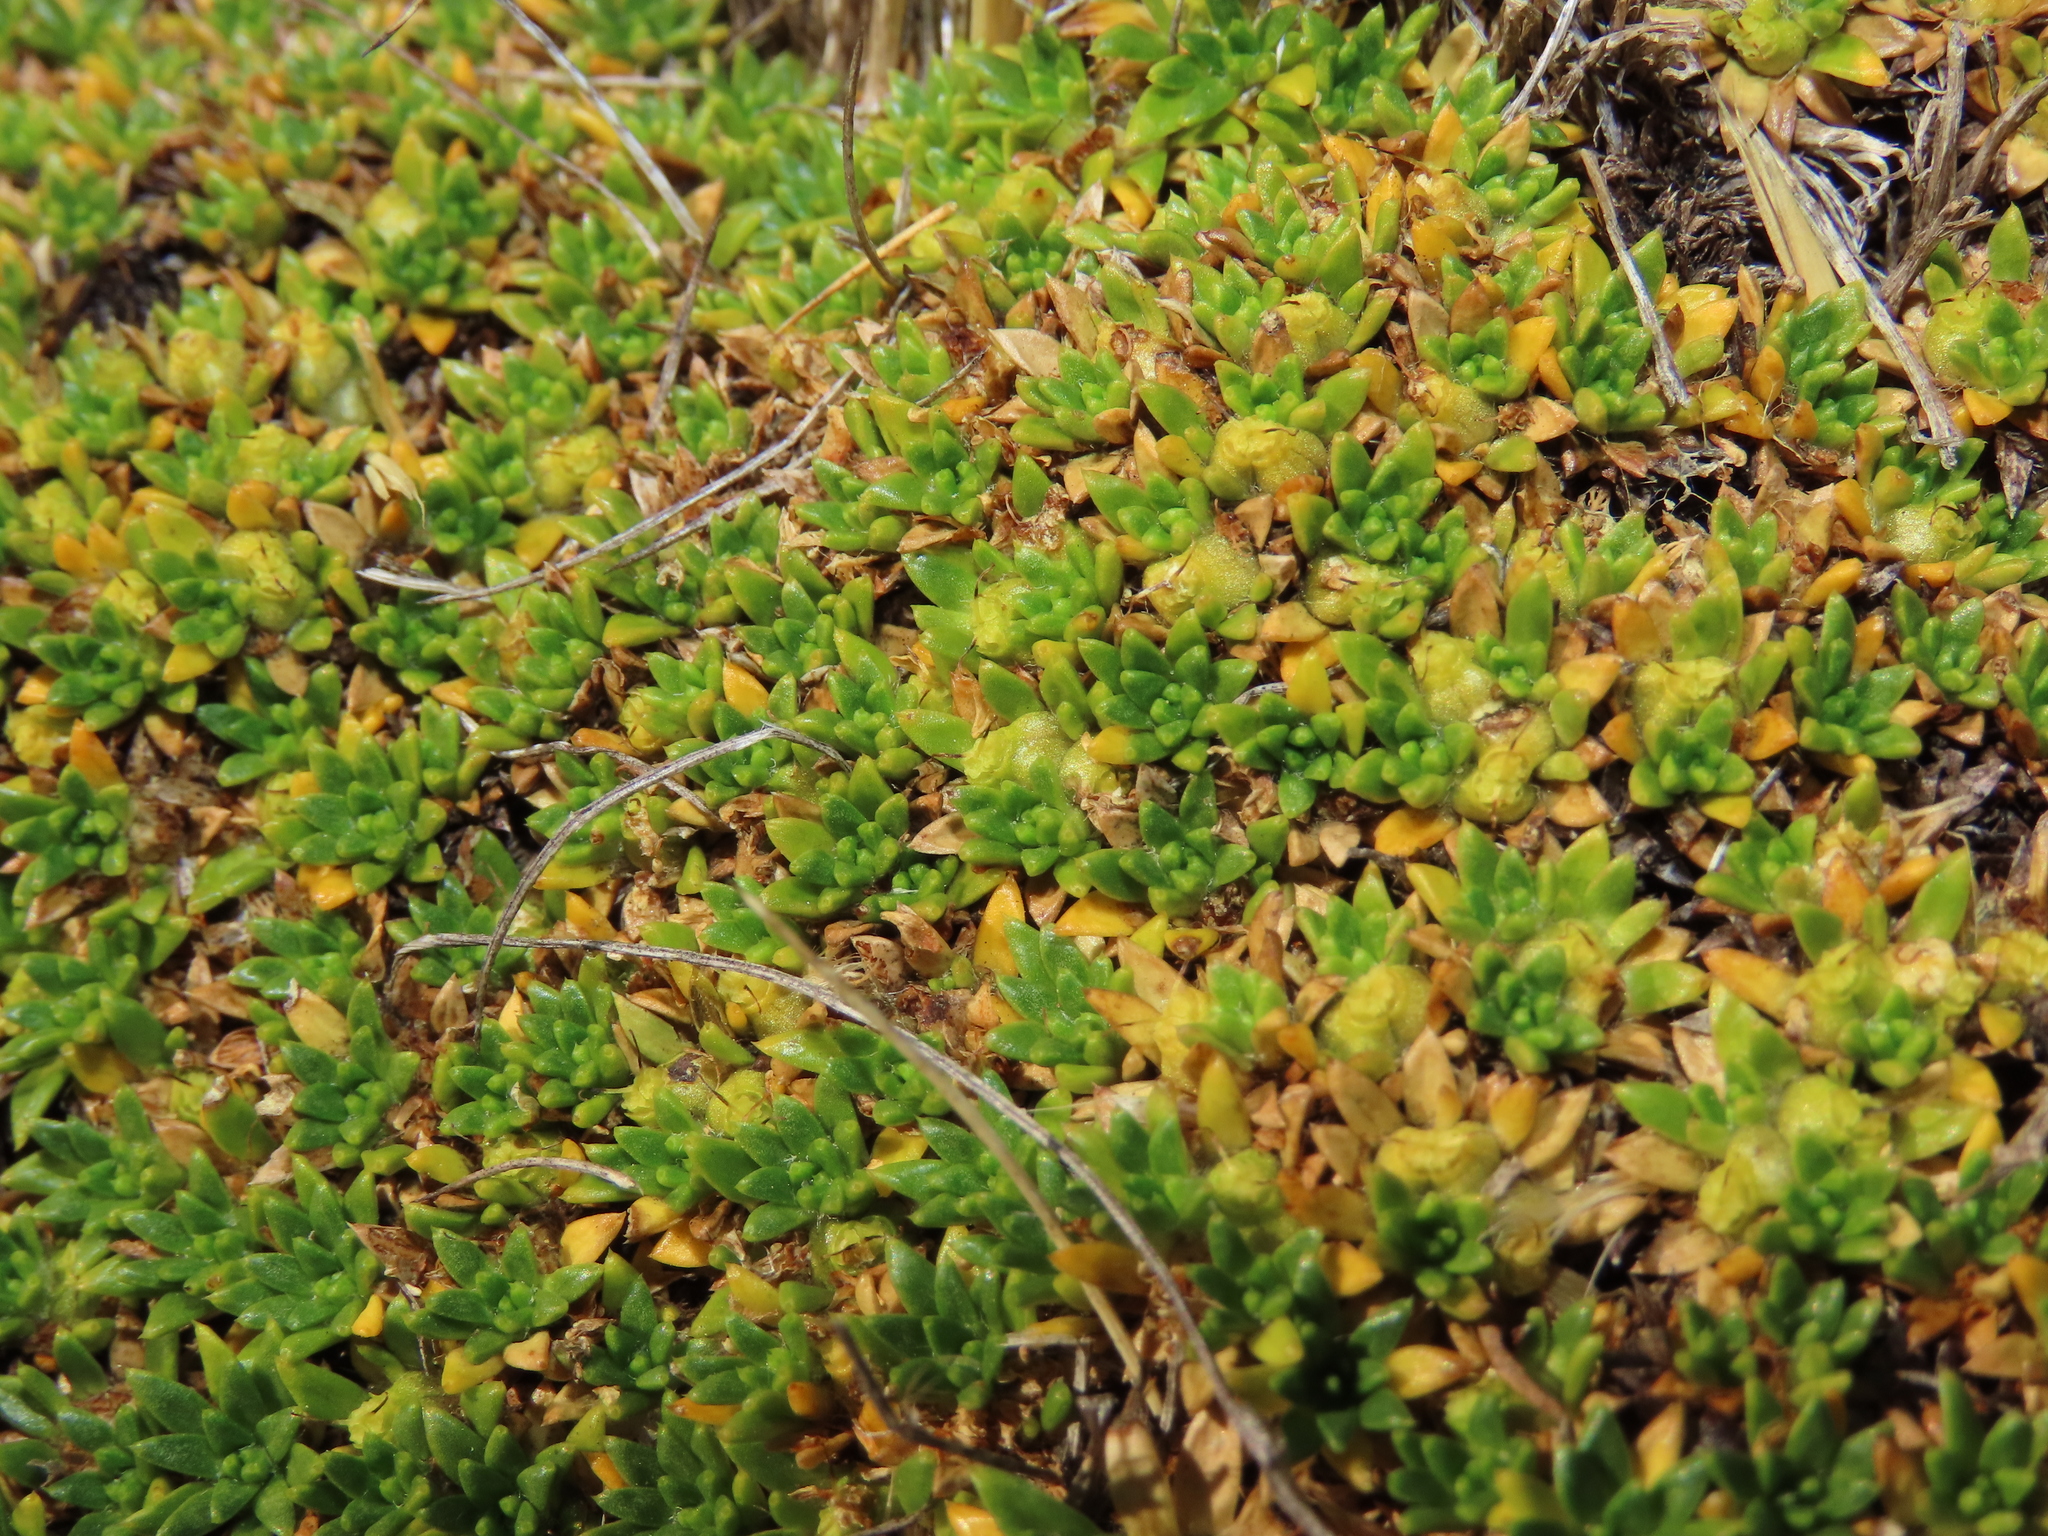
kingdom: Plantae
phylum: Tracheophyta
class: Magnoliopsida
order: Apiales
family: Apiaceae
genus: Azorella
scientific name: Azorella monantha
